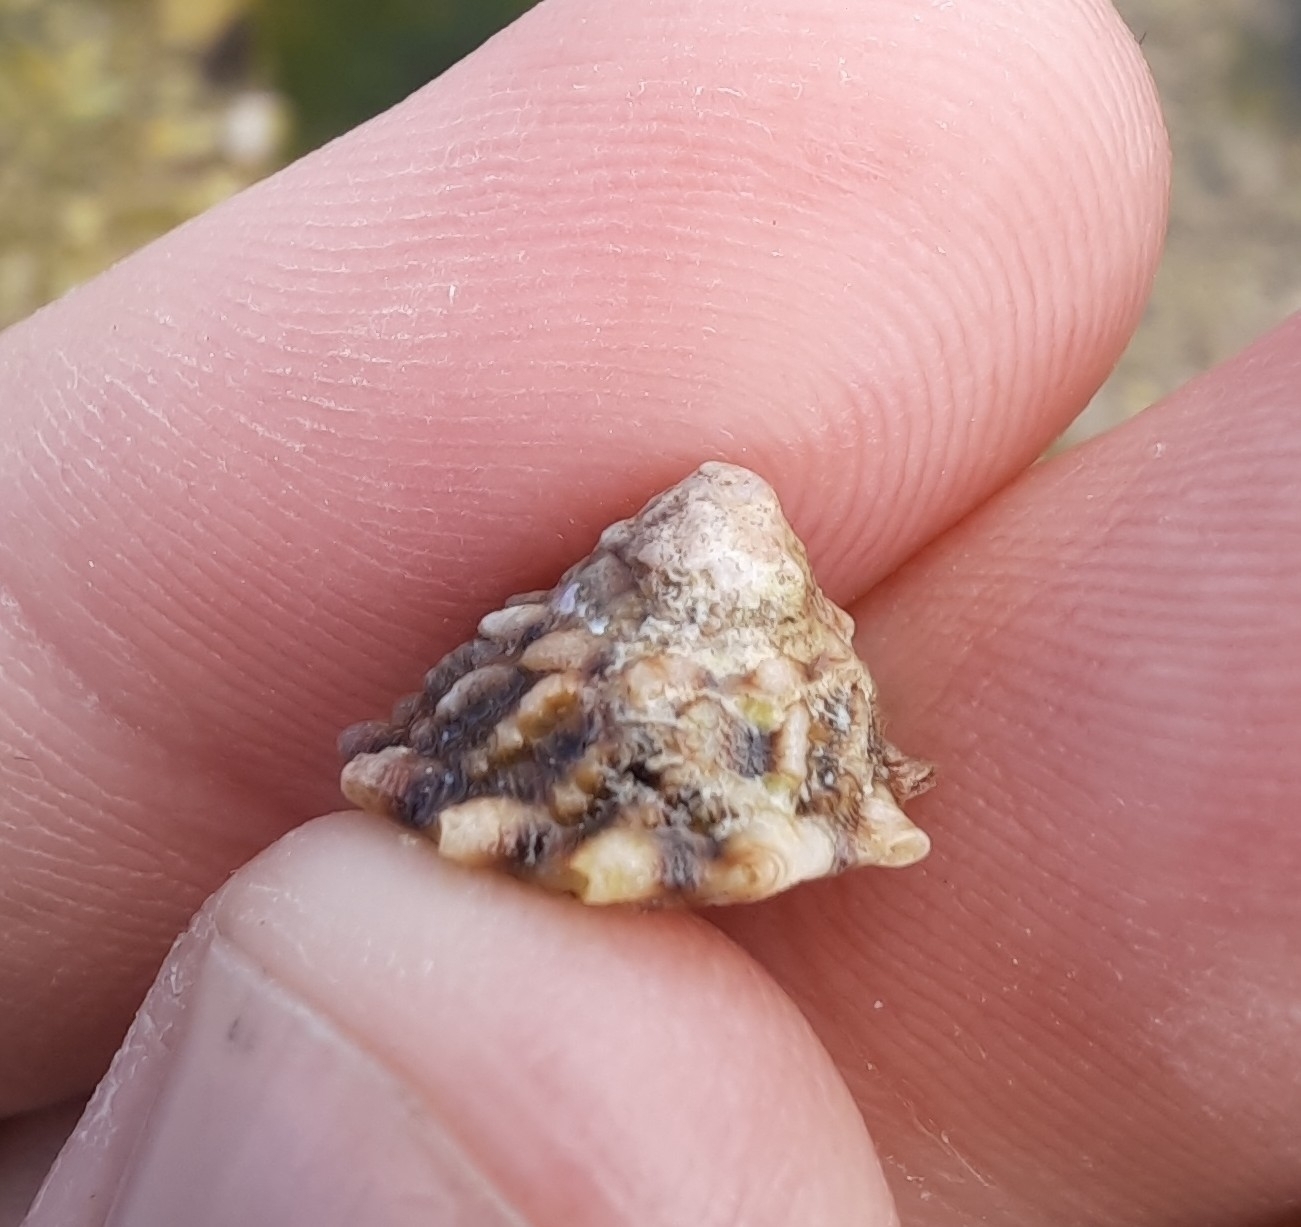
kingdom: Animalia
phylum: Mollusca
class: Gastropoda
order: Trochida
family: Turbinidae
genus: Cookia
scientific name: Cookia sulcata
